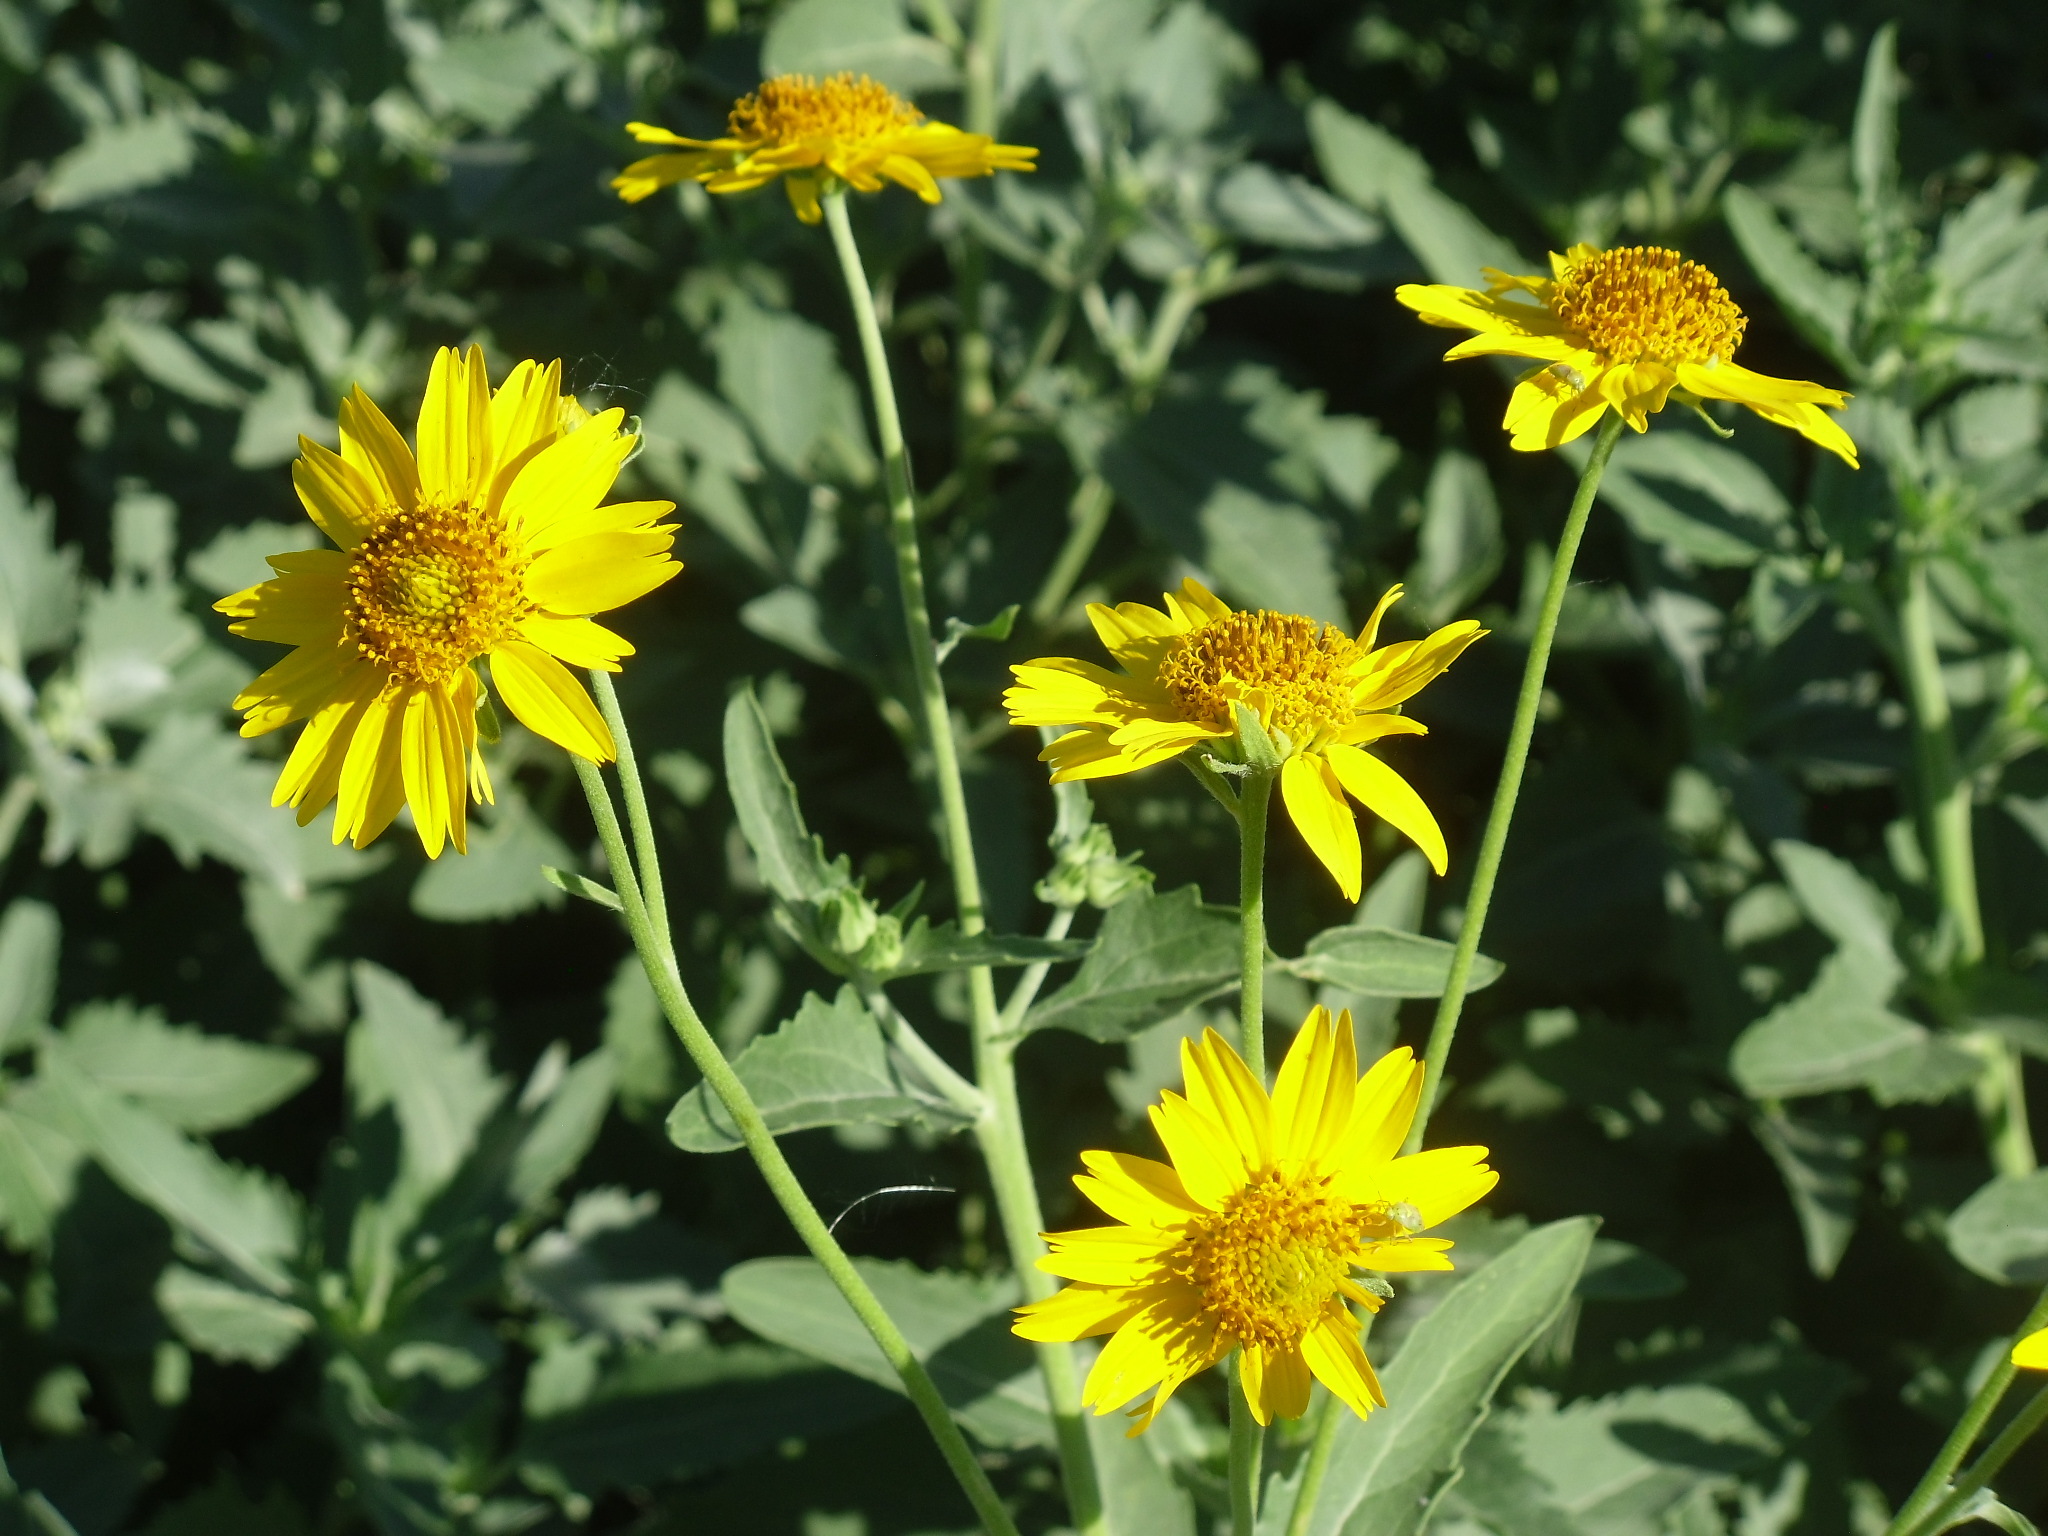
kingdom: Plantae
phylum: Tracheophyta
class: Magnoliopsida
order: Asterales
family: Asteraceae
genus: Verbesina
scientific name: Verbesina encelioides
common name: Golden crownbeard
